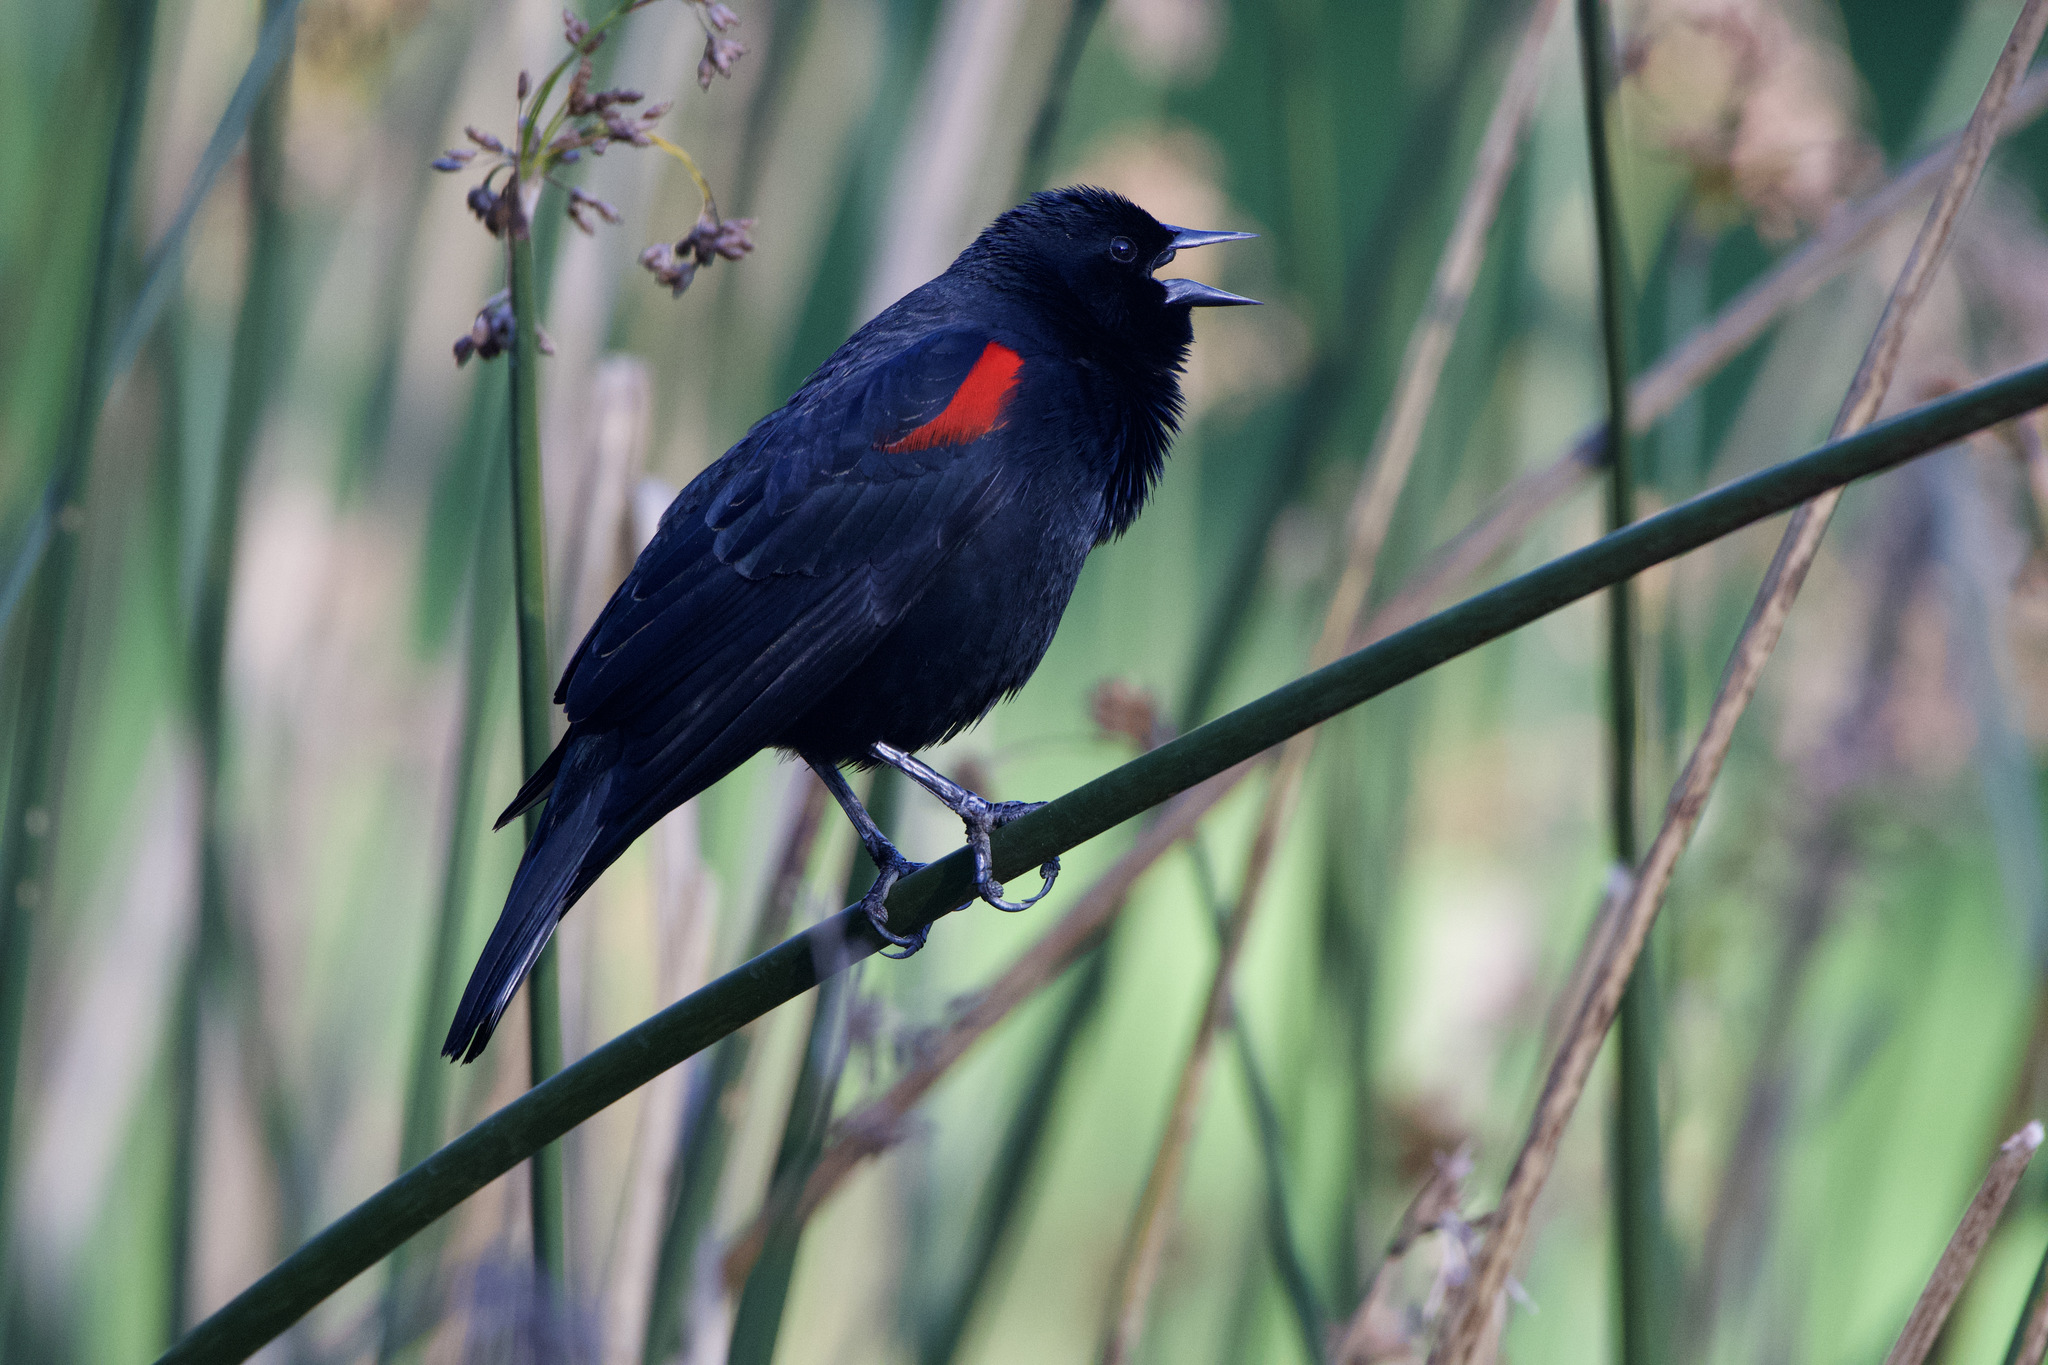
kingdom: Animalia
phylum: Chordata
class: Aves
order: Passeriformes
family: Icteridae
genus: Agelaius
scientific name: Agelaius phoeniceus
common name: Red-winged blackbird
